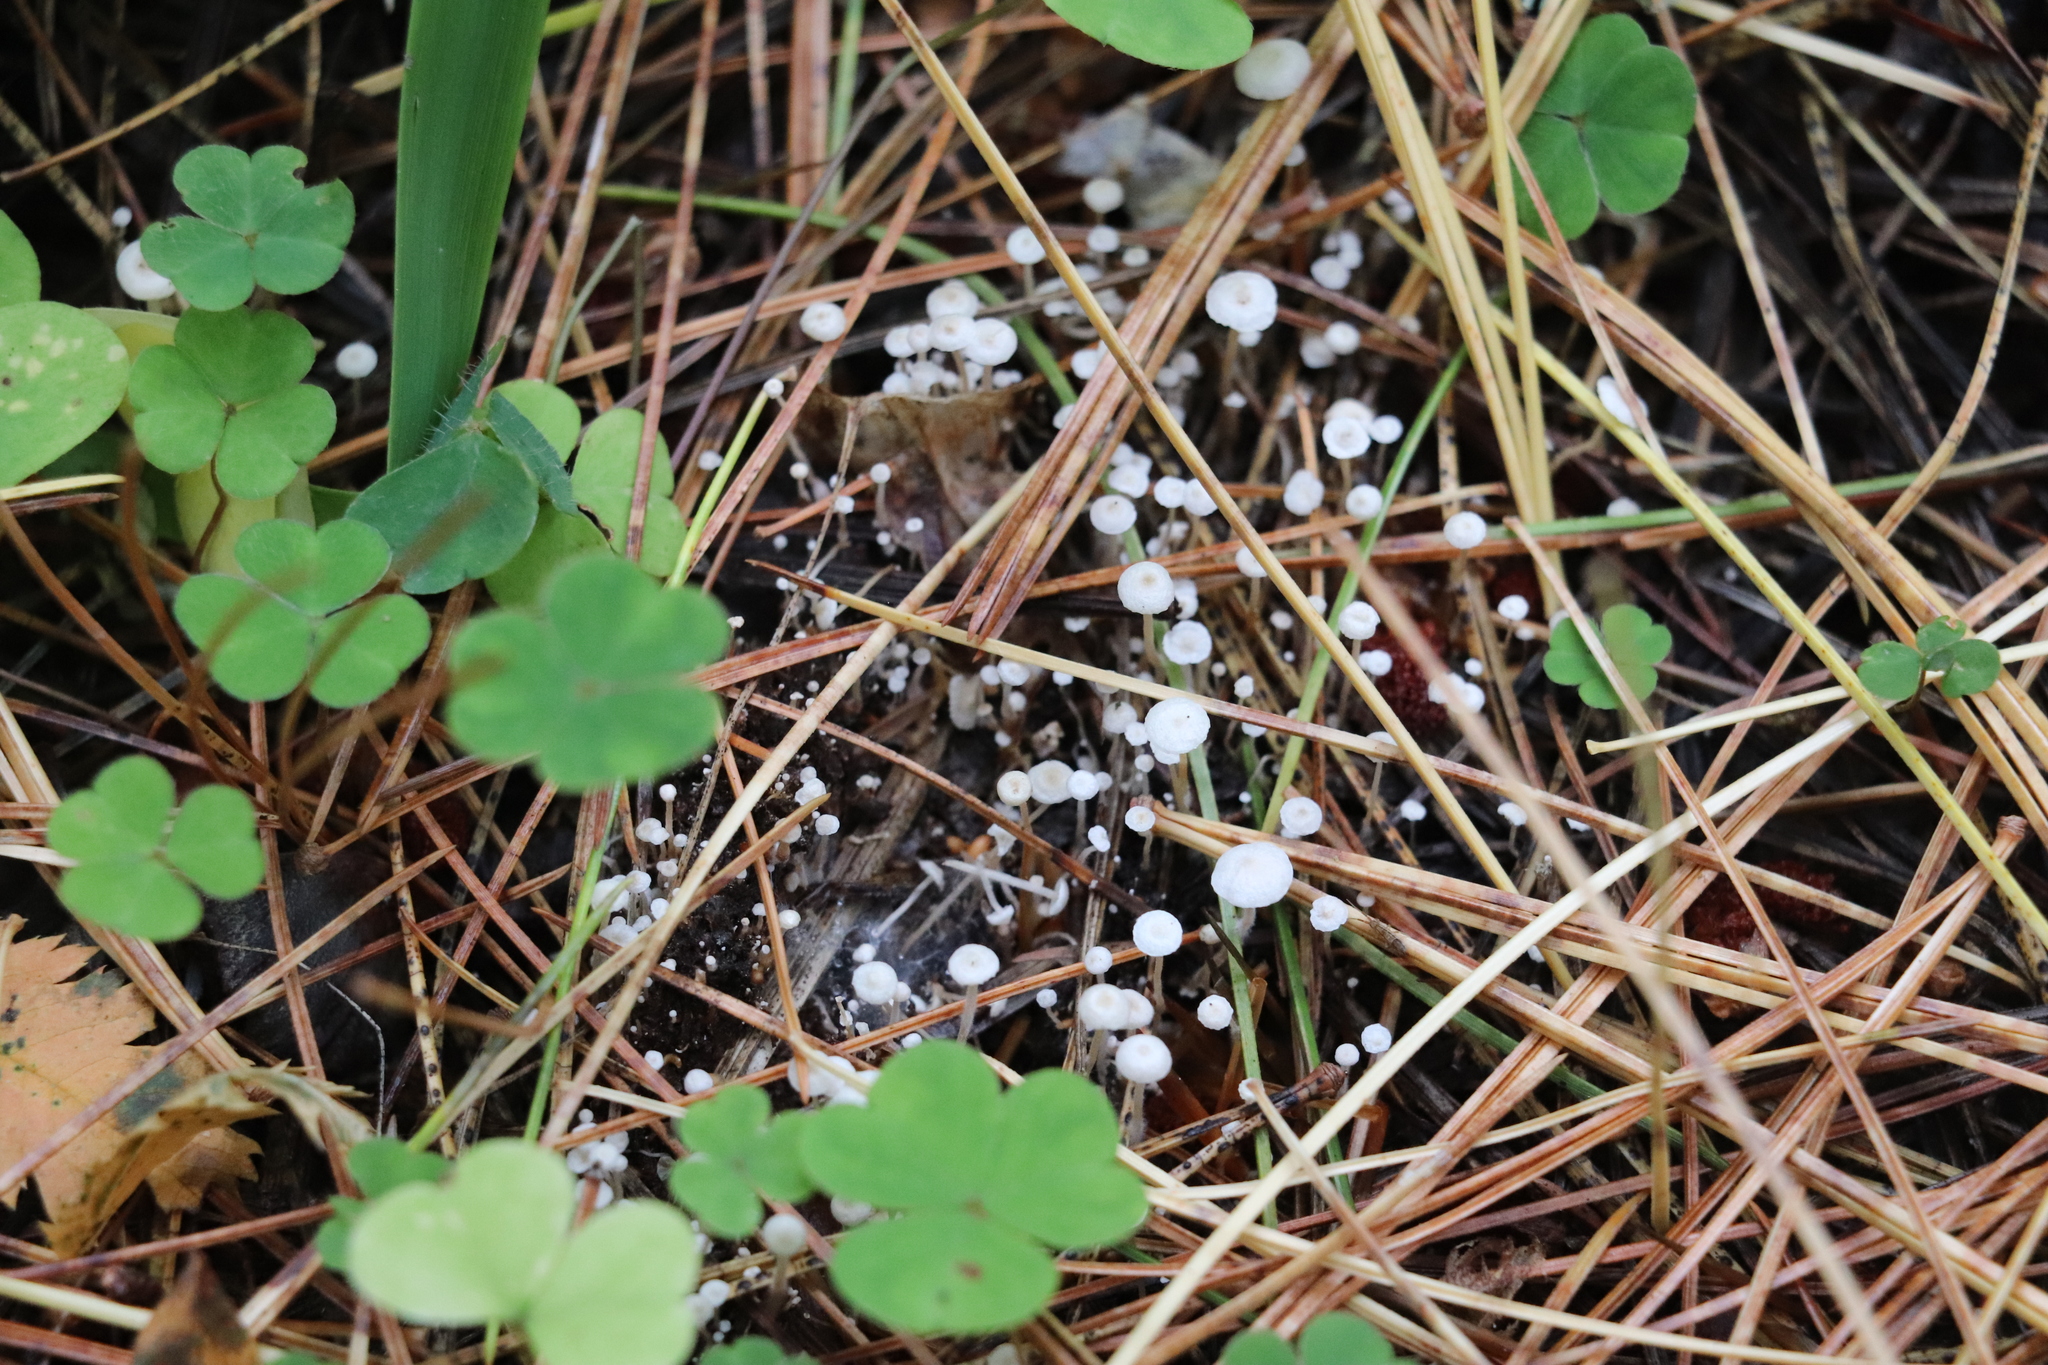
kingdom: Fungi
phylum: Basidiomycota
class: Agaricomycetes
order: Agaricales
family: Tricholomataceae
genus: Collybia
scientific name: Collybia tuberosa
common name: Lentil shanklet
